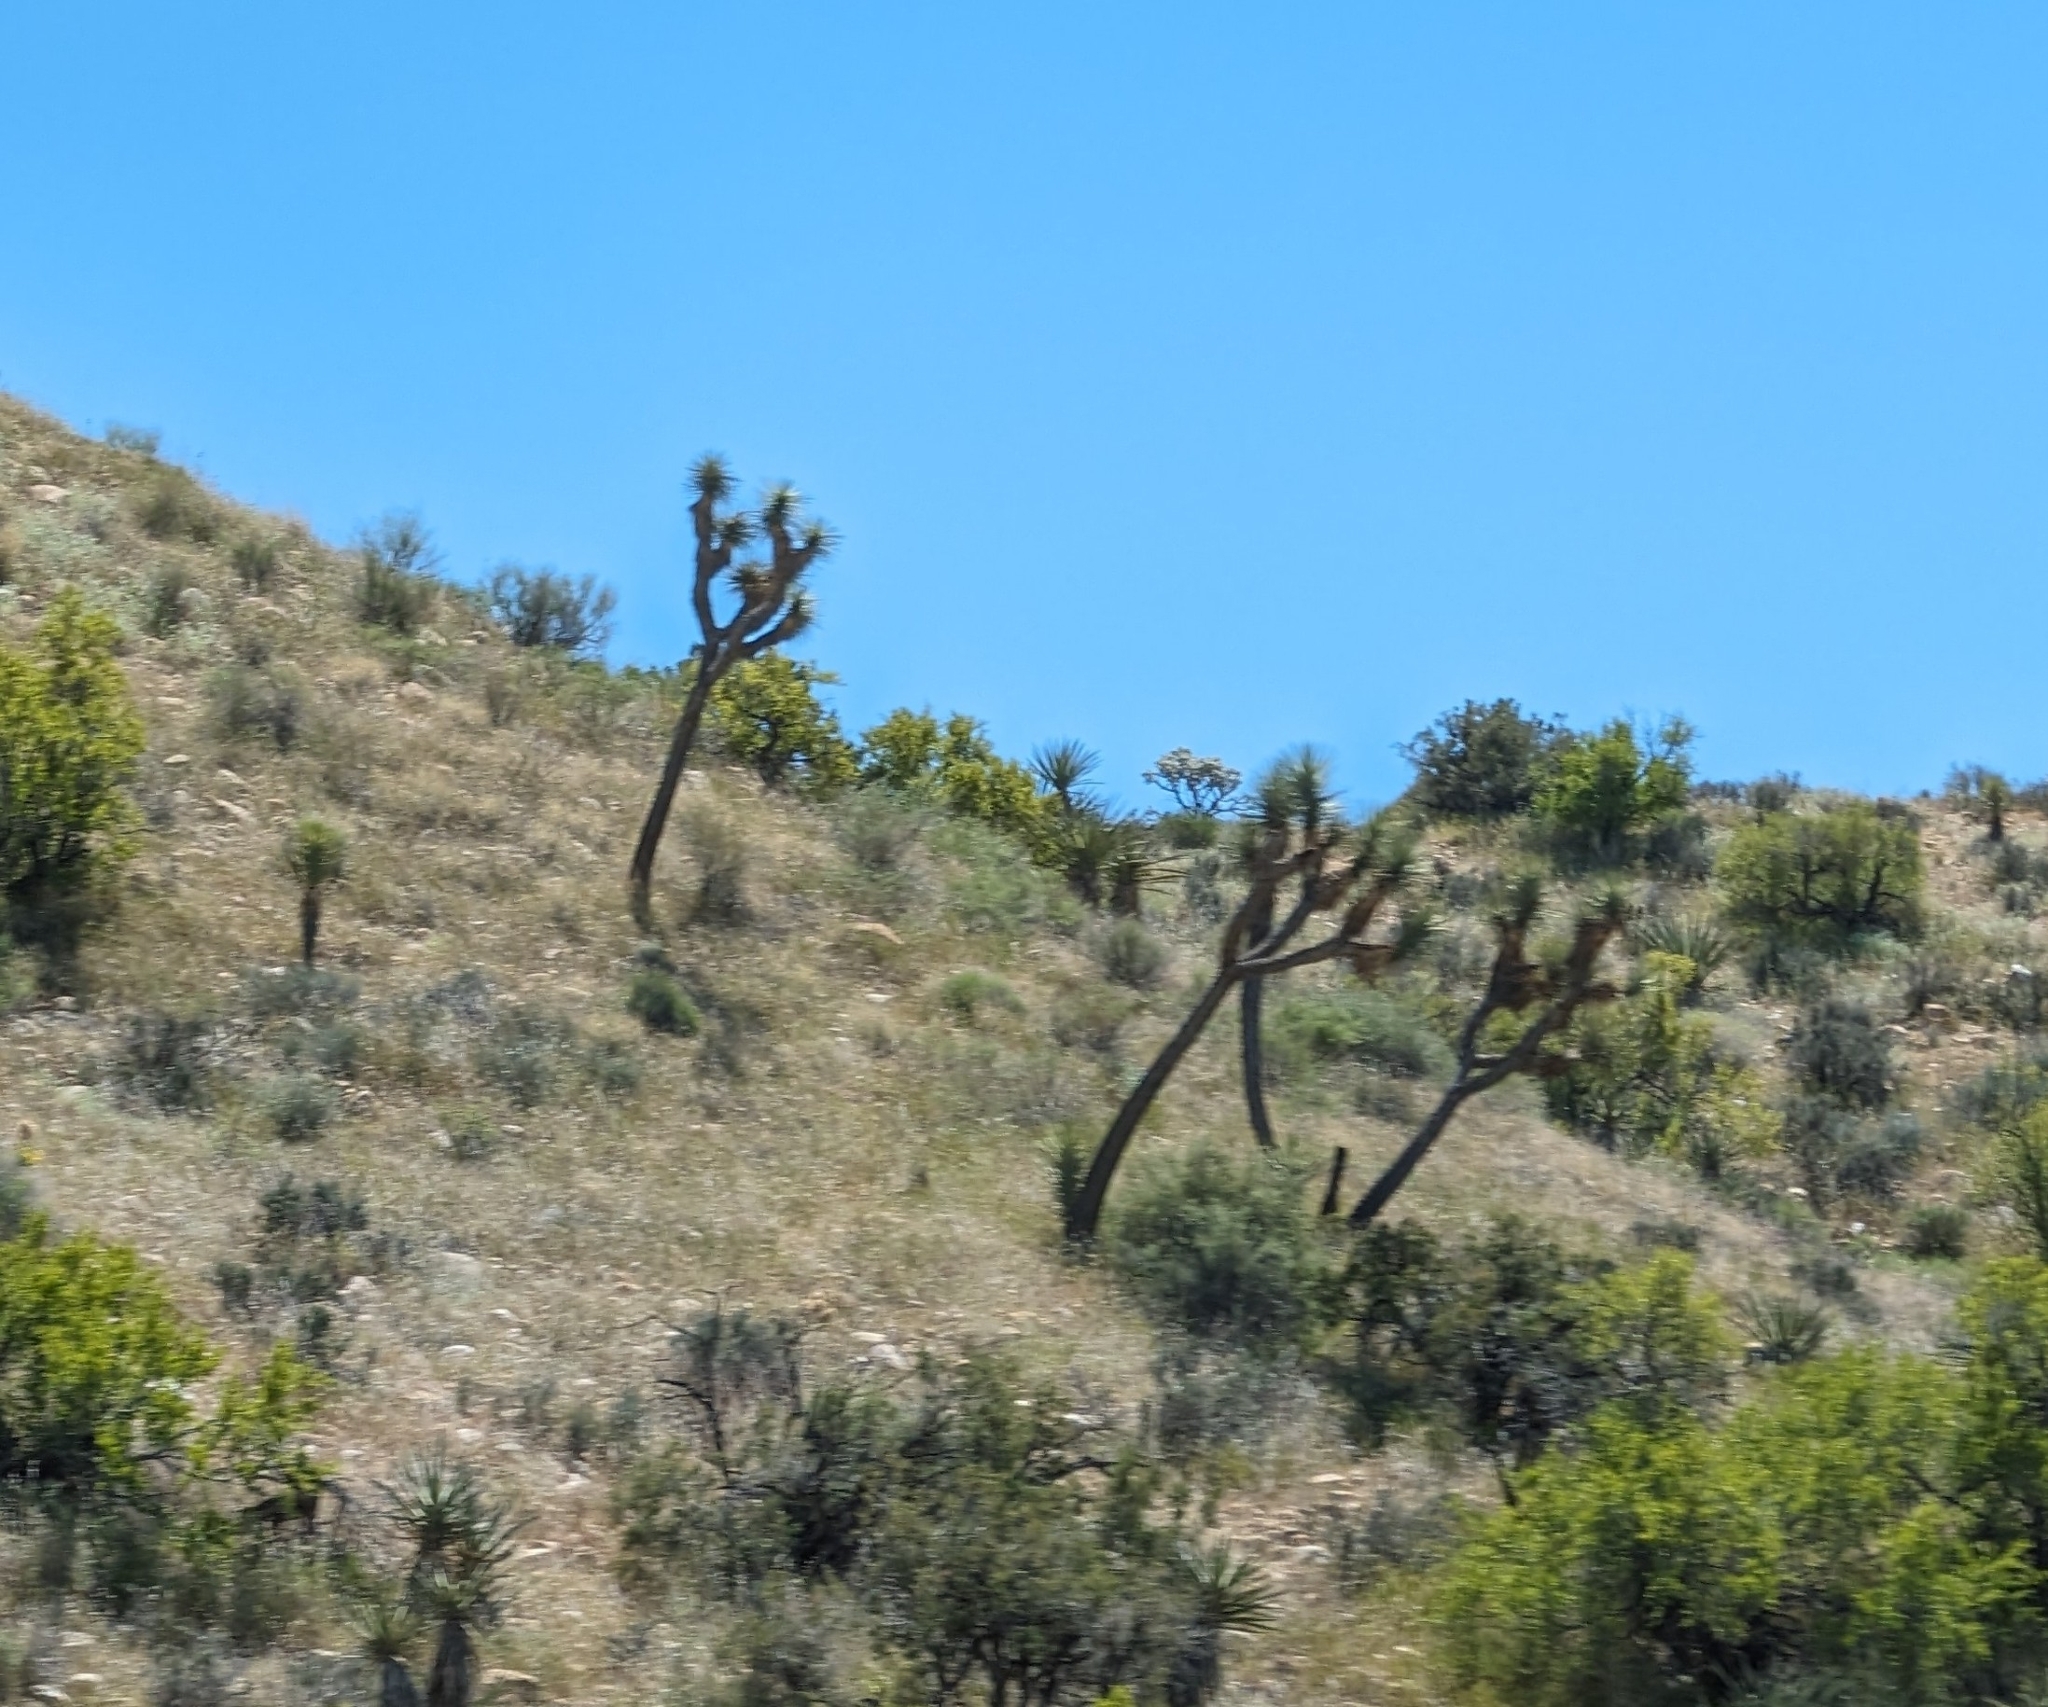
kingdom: Plantae
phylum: Tracheophyta
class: Liliopsida
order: Asparagales
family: Asparagaceae
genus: Yucca
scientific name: Yucca brevifolia
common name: Joshua tree
